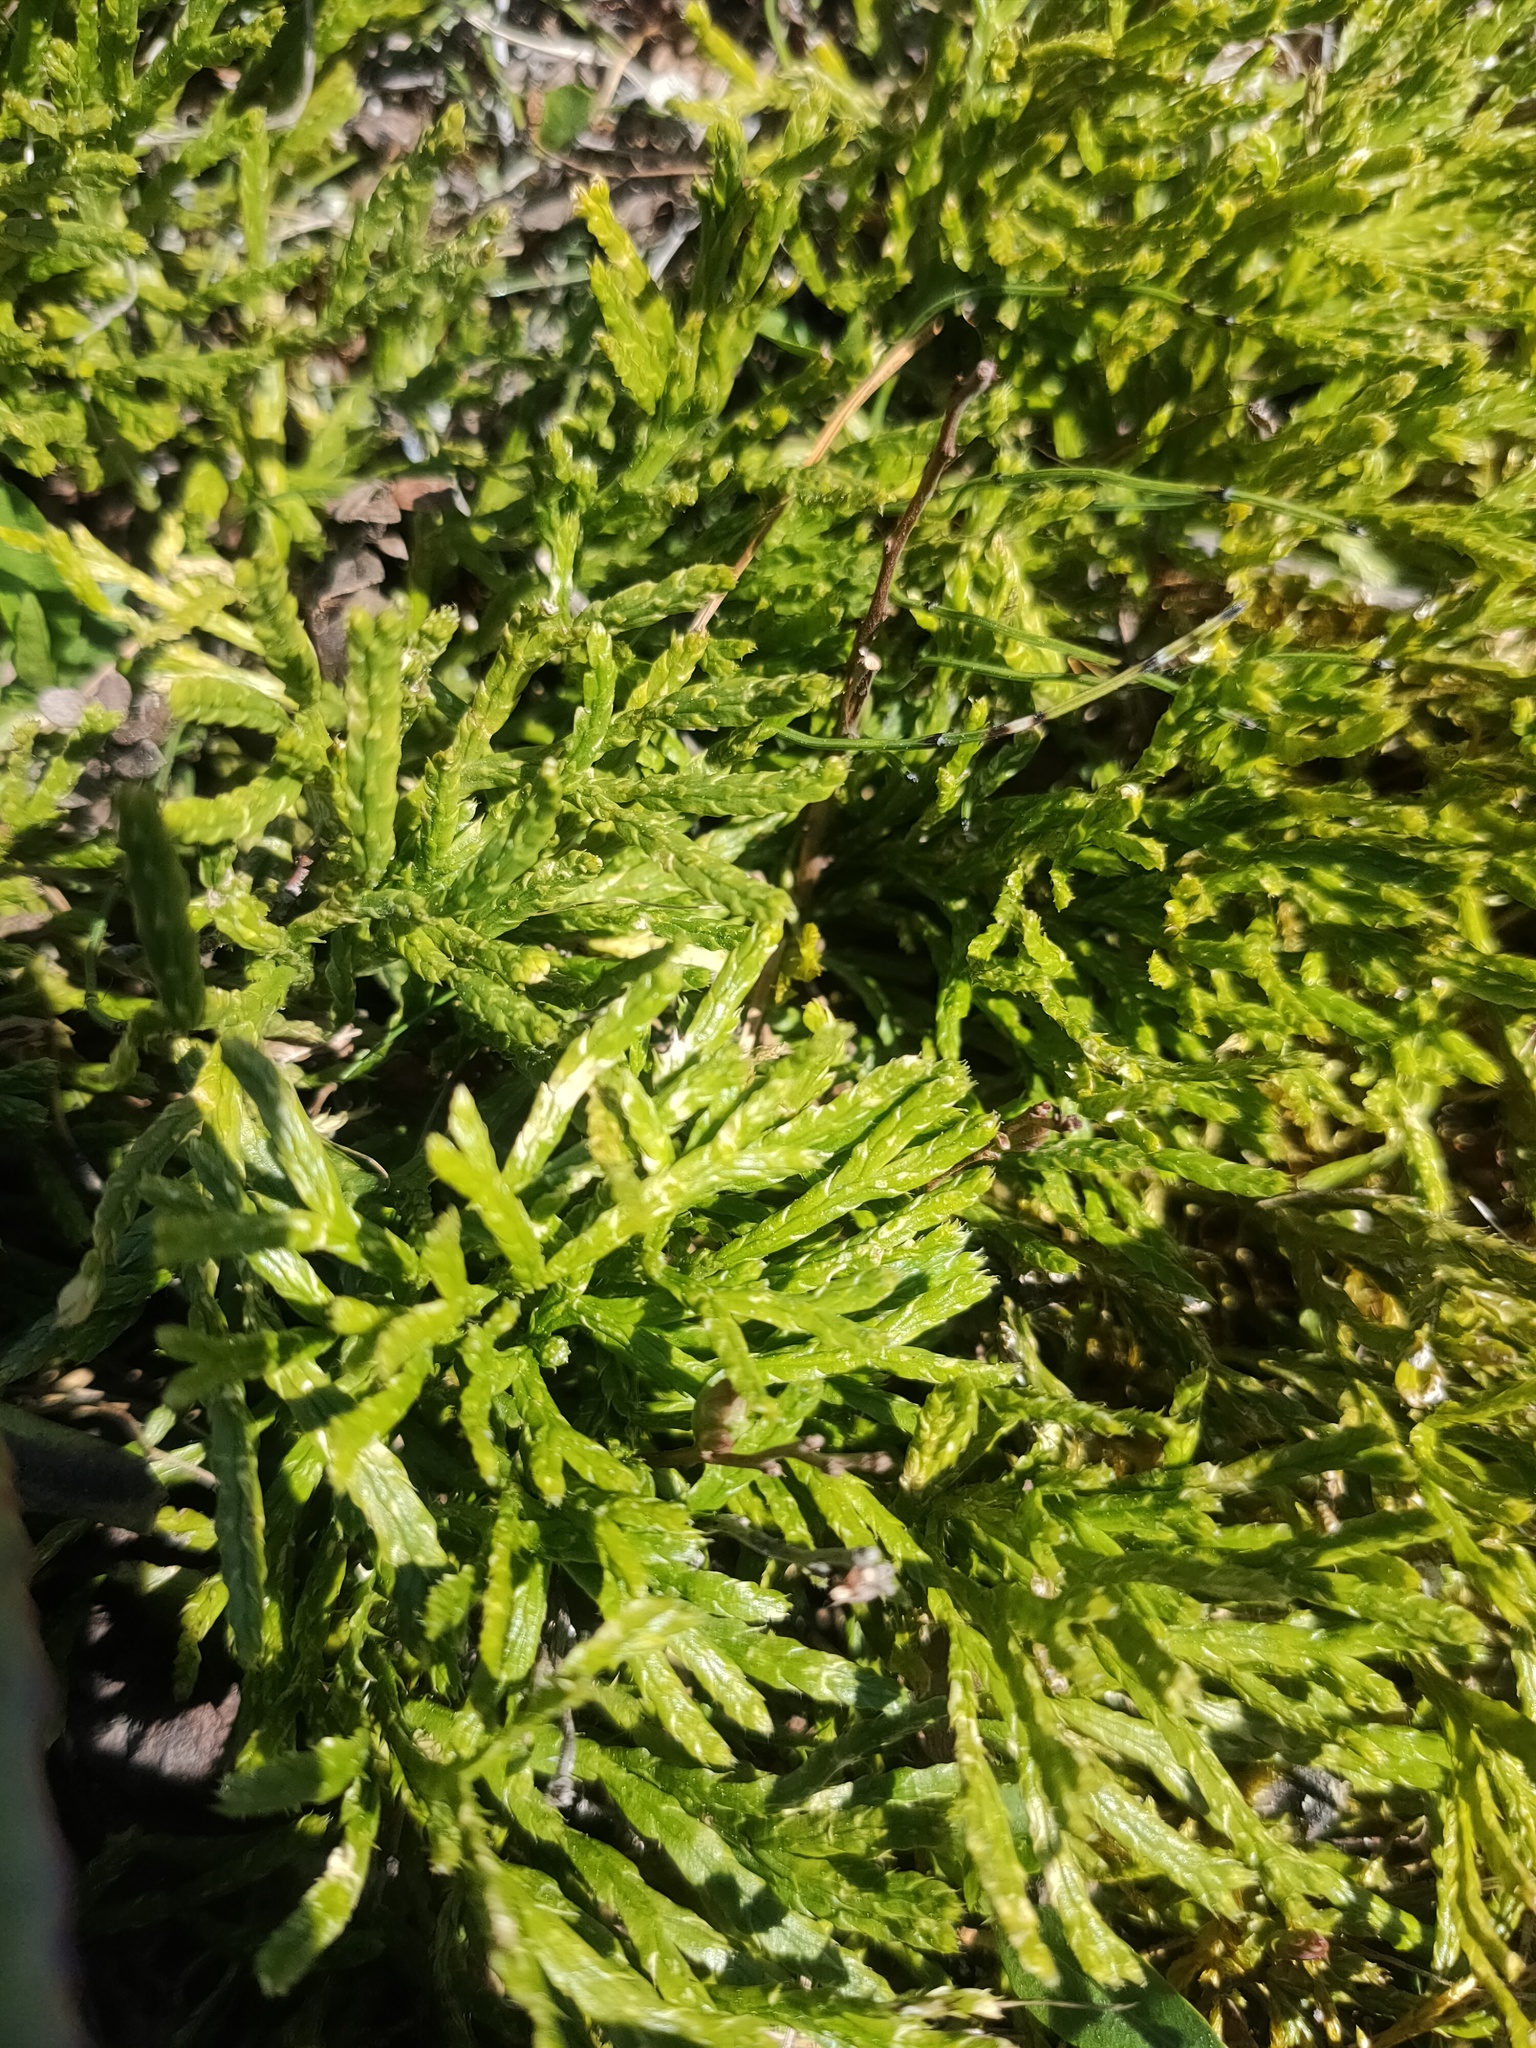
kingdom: Plantae
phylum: Tracheophyta
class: Lycopodiopsida
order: Lycopodiales
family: Lycopodiaceae
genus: Diphasiastrum
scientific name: Diphasiastrum complanatum
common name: Northern running-pine
